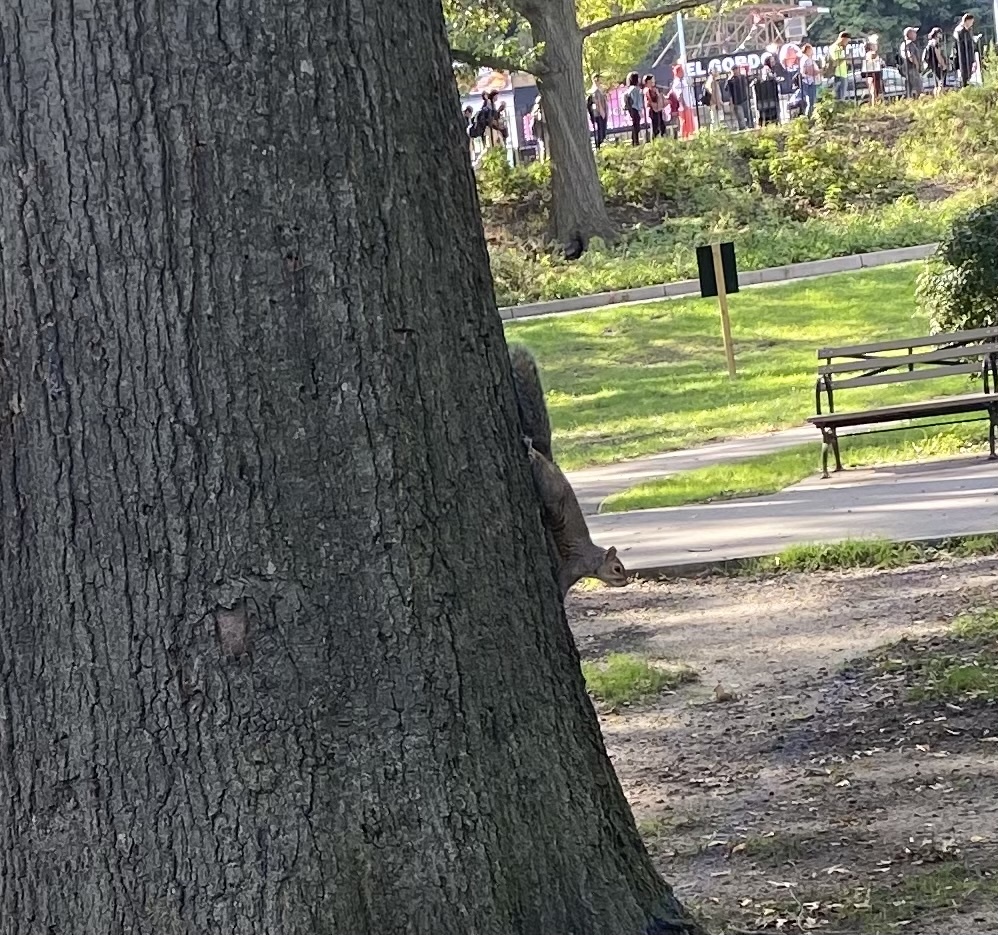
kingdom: Animalia
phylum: Chordata
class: Mammalia
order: Rodentia
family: Sciuridae
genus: Sciurus
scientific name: Sciurus carolinensis
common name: Eastern gray squirrel
